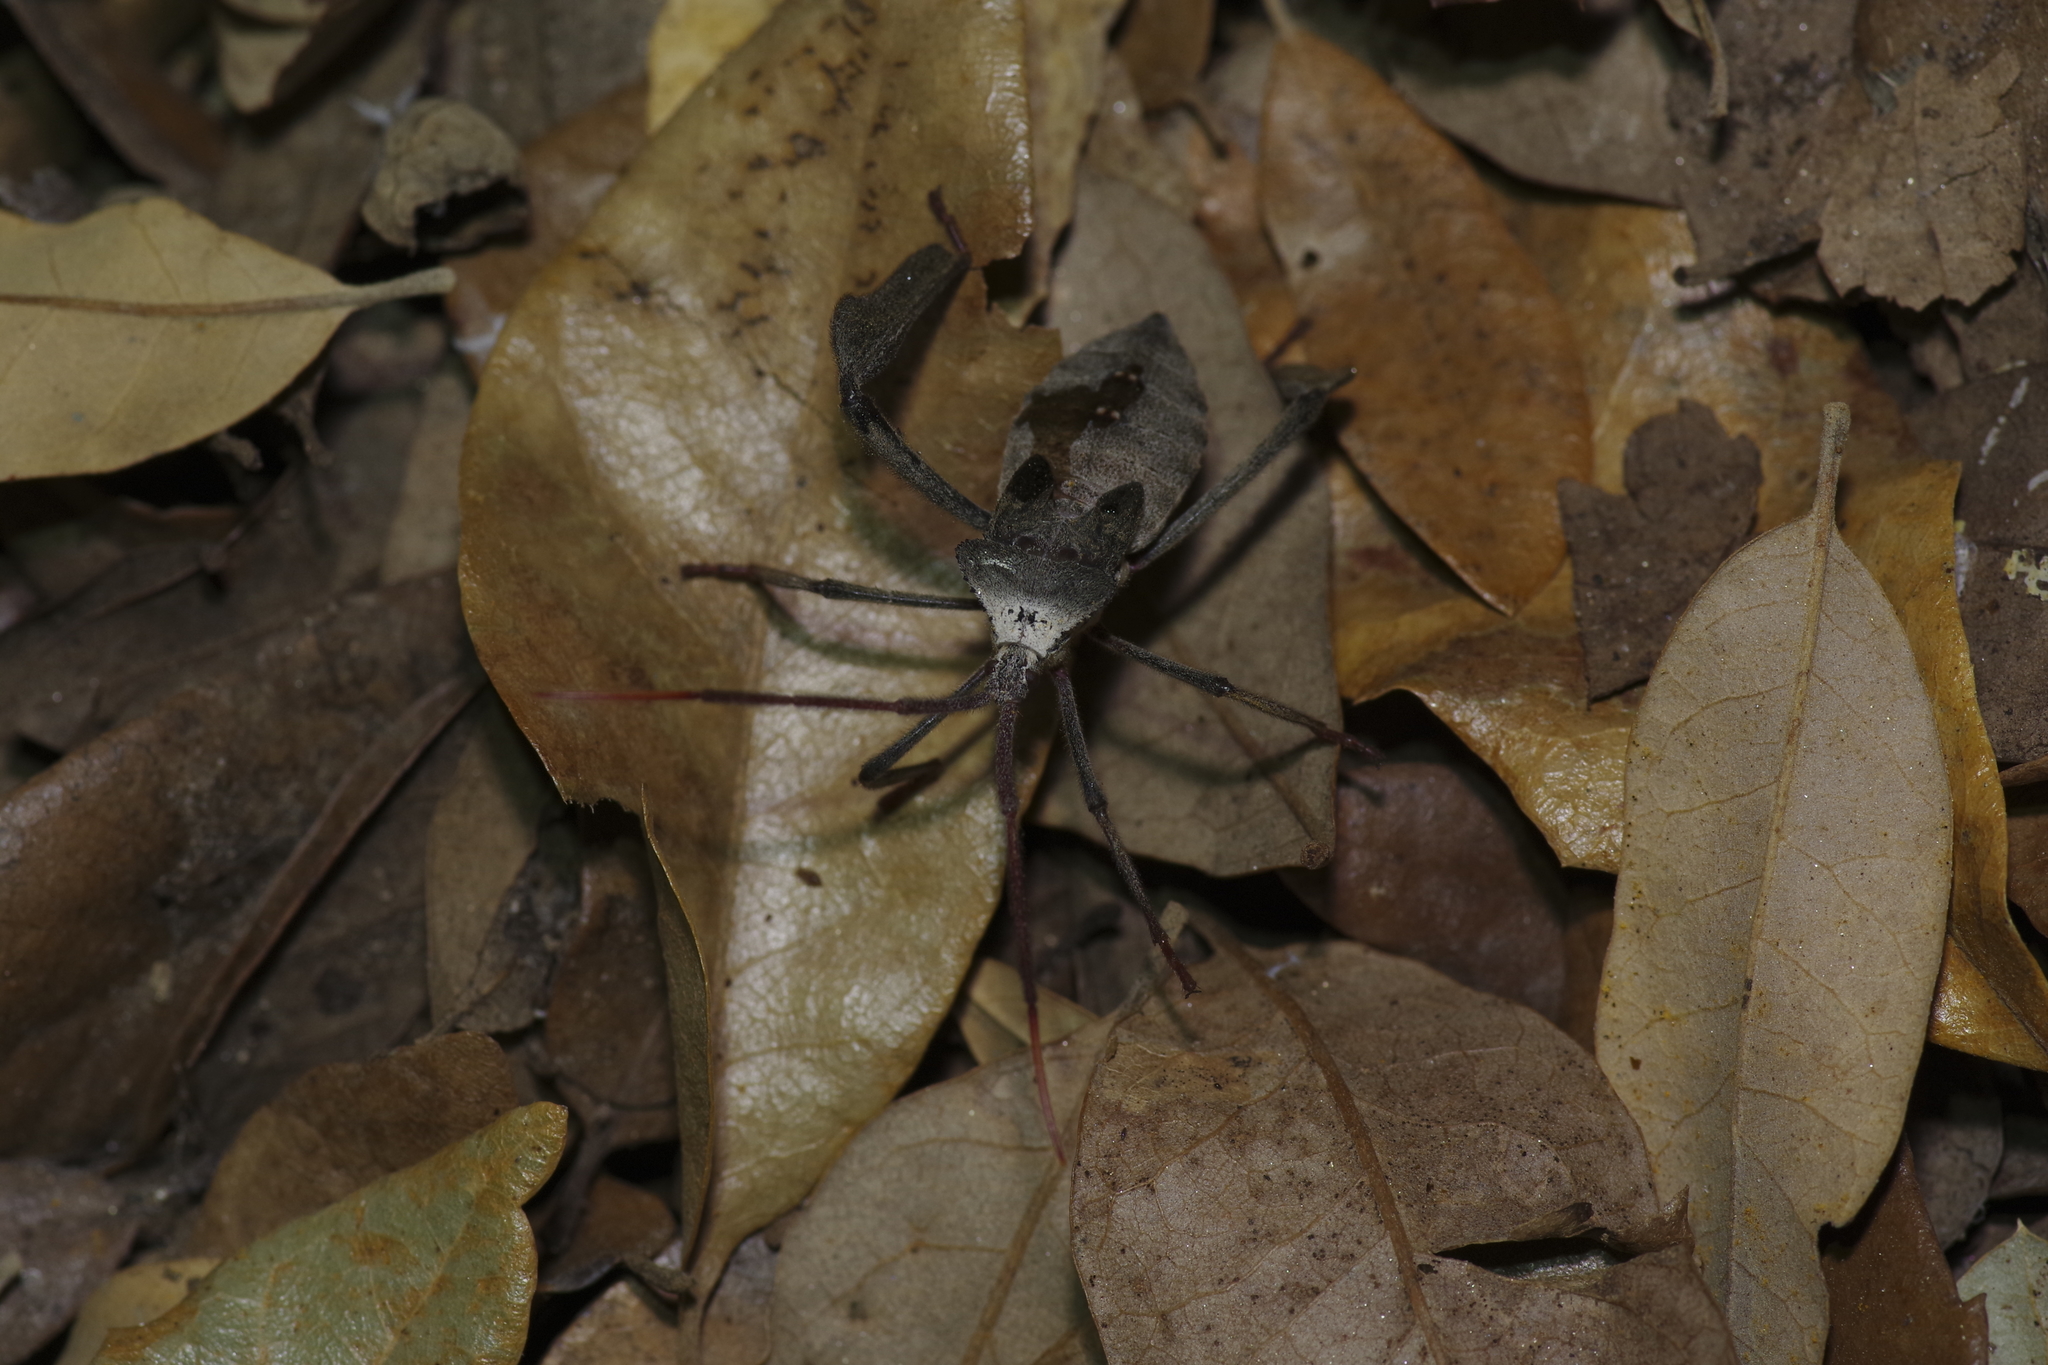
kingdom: Animalia
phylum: Arthropoda
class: Insecta
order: Hemiptera
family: Coreidae
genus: Acanthocephala
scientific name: Acanthocephala declivis
